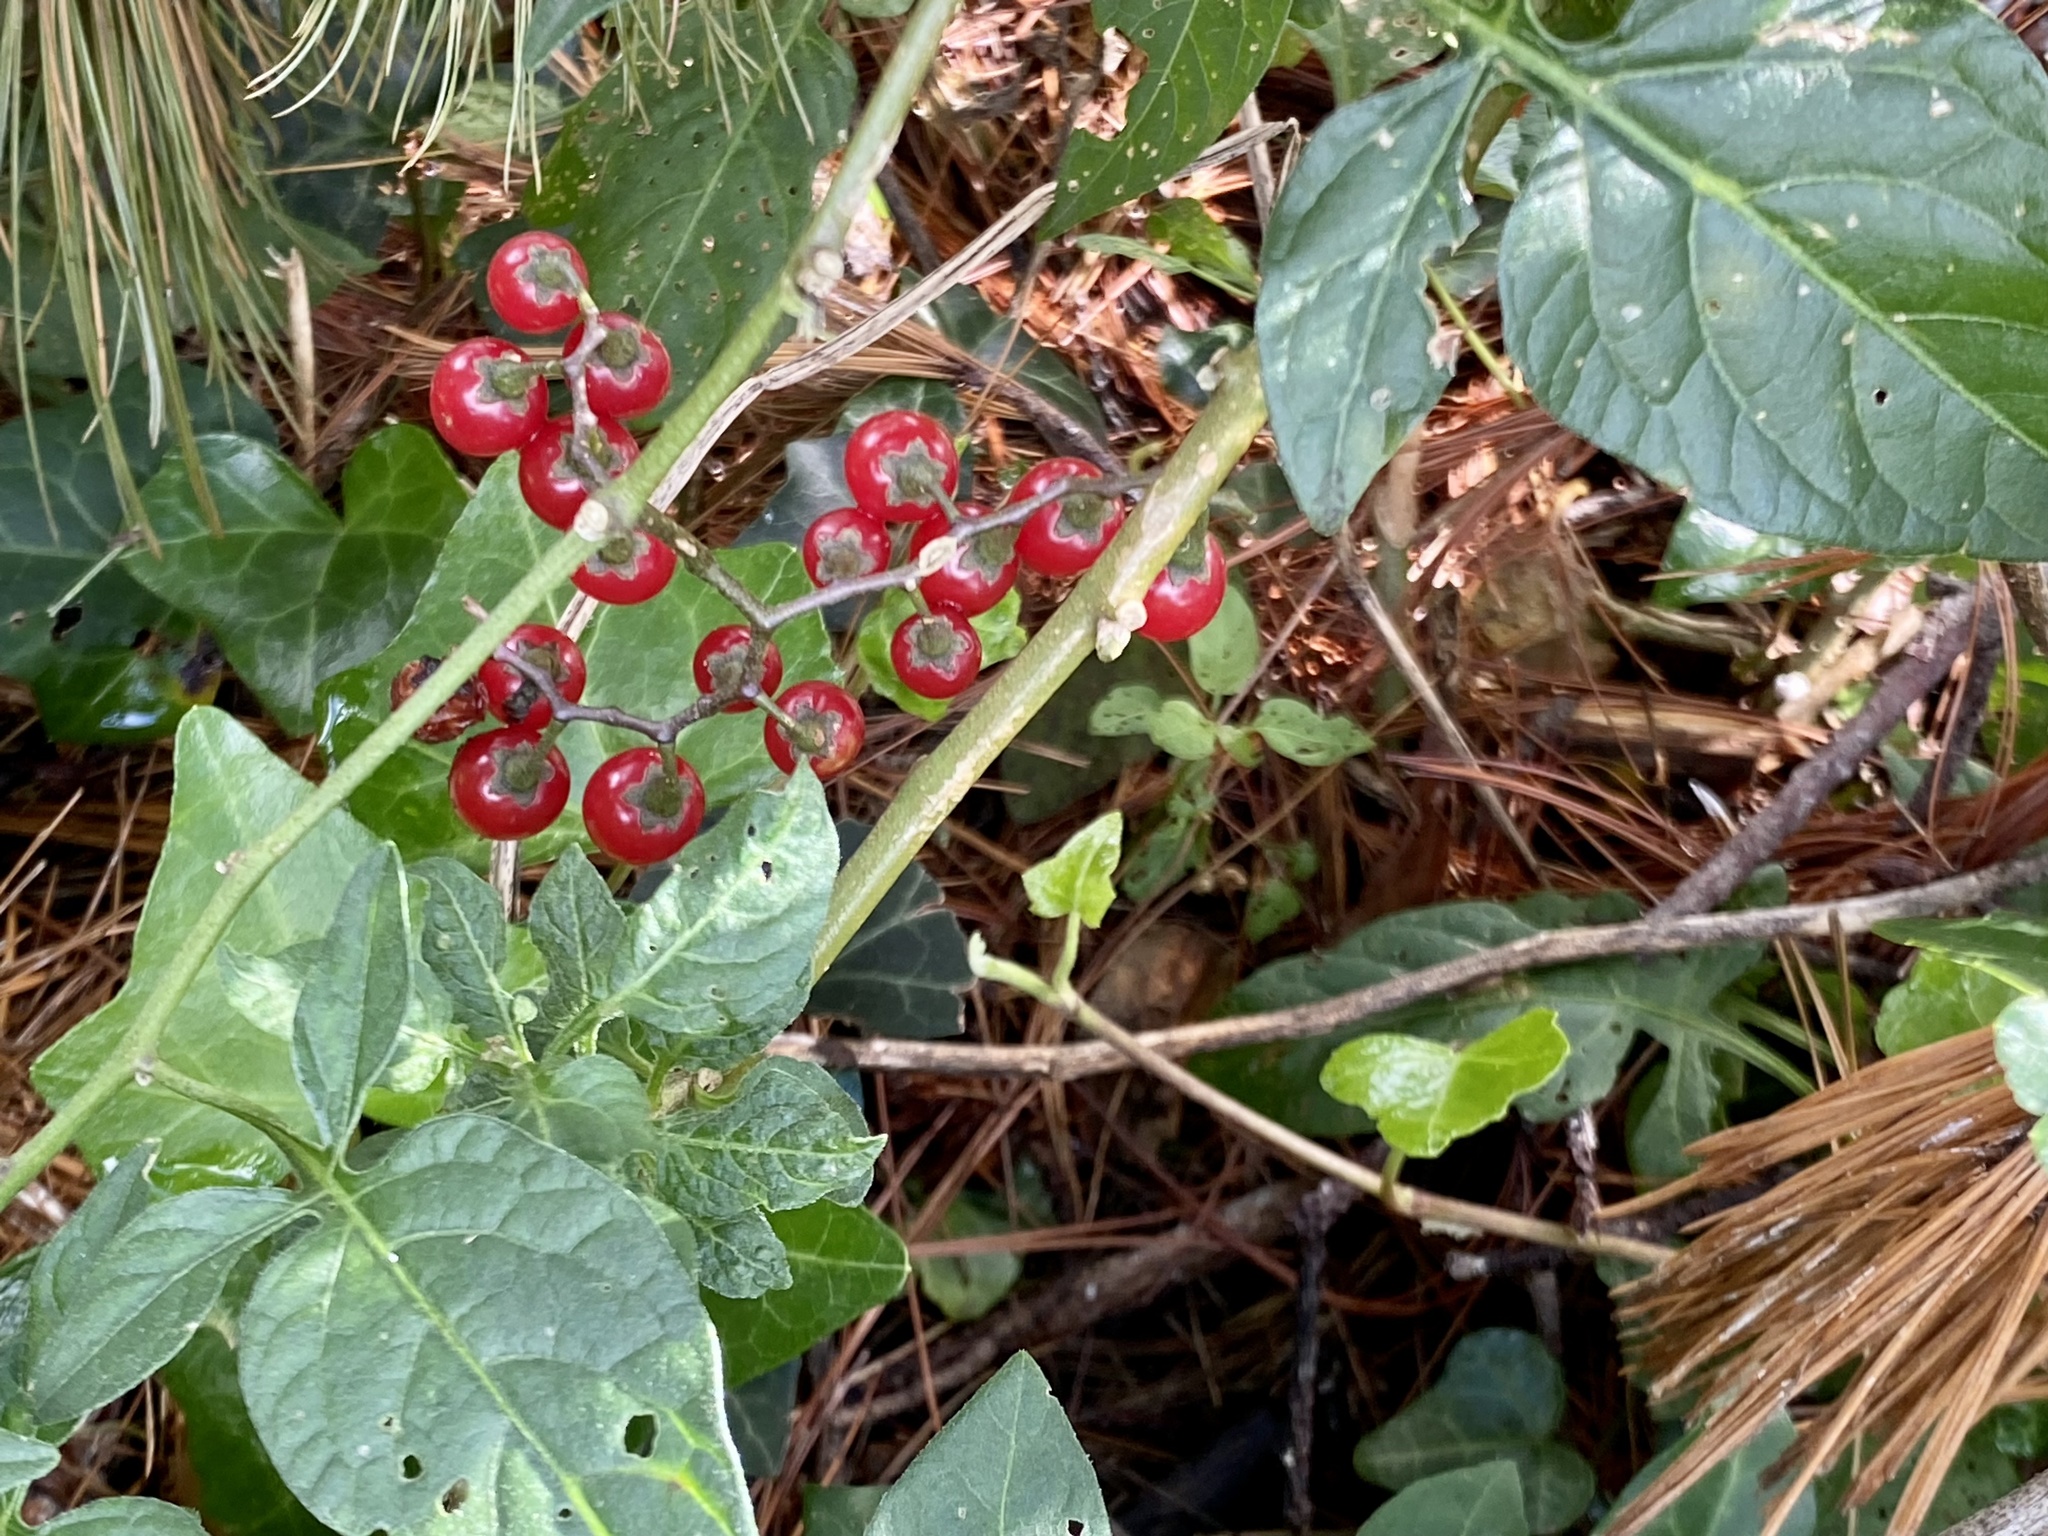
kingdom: Plantae
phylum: Tracheophyta
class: Magnoliopsida
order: Solanales
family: Solanaceae
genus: Solanum
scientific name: Solanum dulcamara
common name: Climbing nightshade
